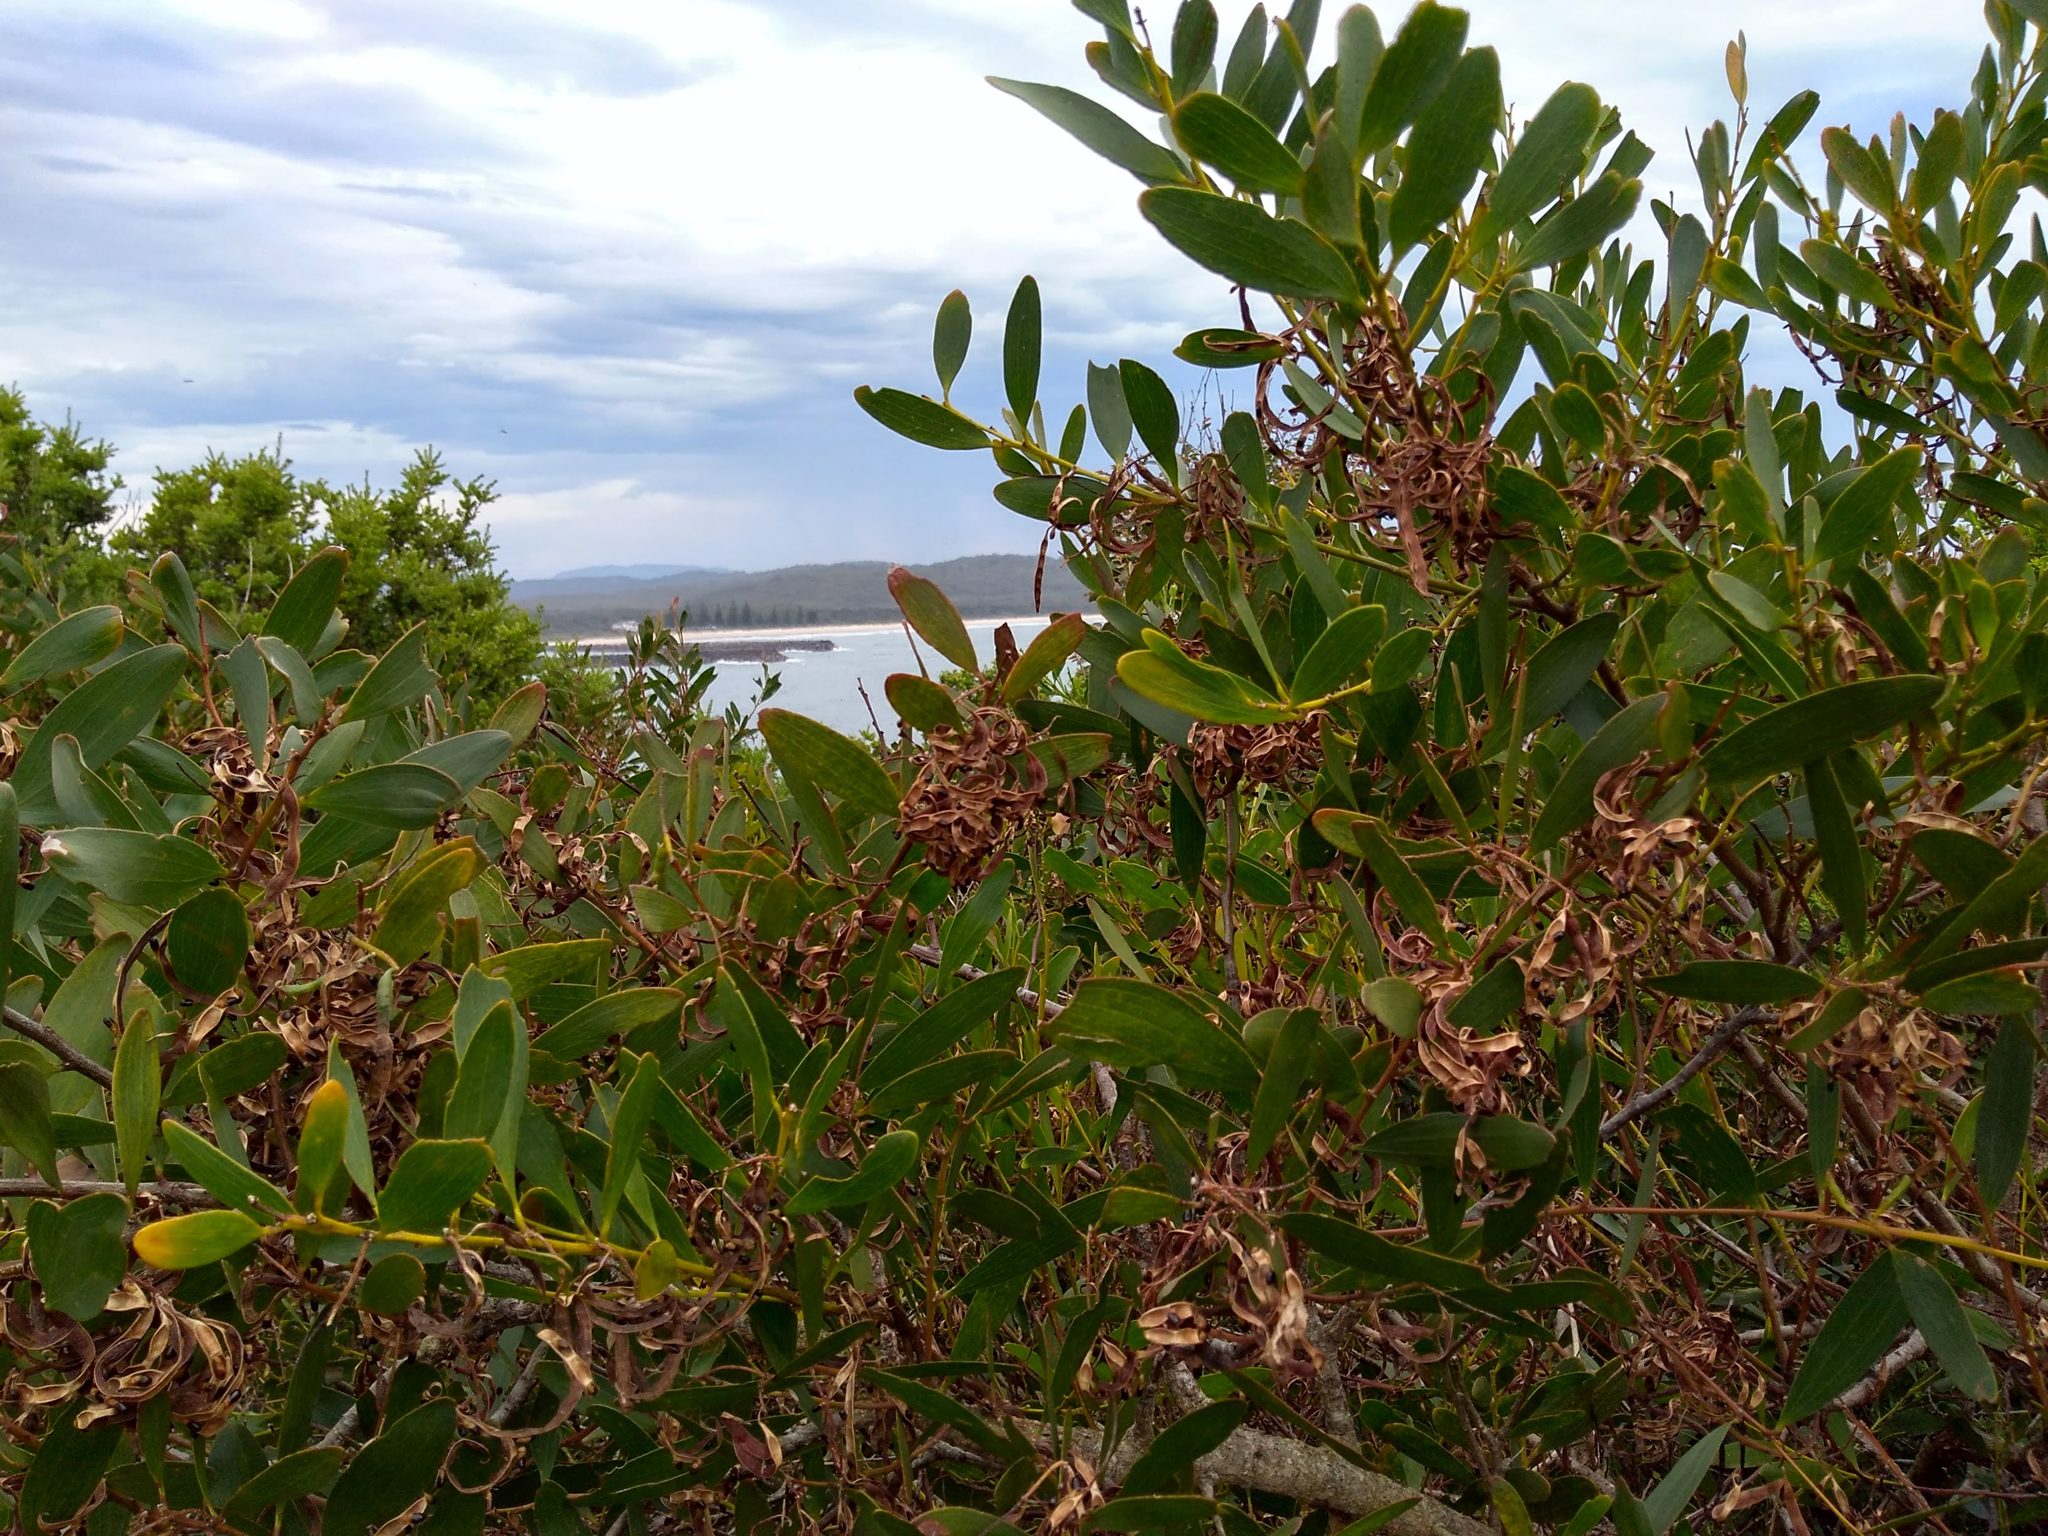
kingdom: Plantae
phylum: Tracheophyta
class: Magnoliopsida
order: Fabales
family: Fabaceae
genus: Acacia
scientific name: Acacia longifolia
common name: Sydney golden wattle
